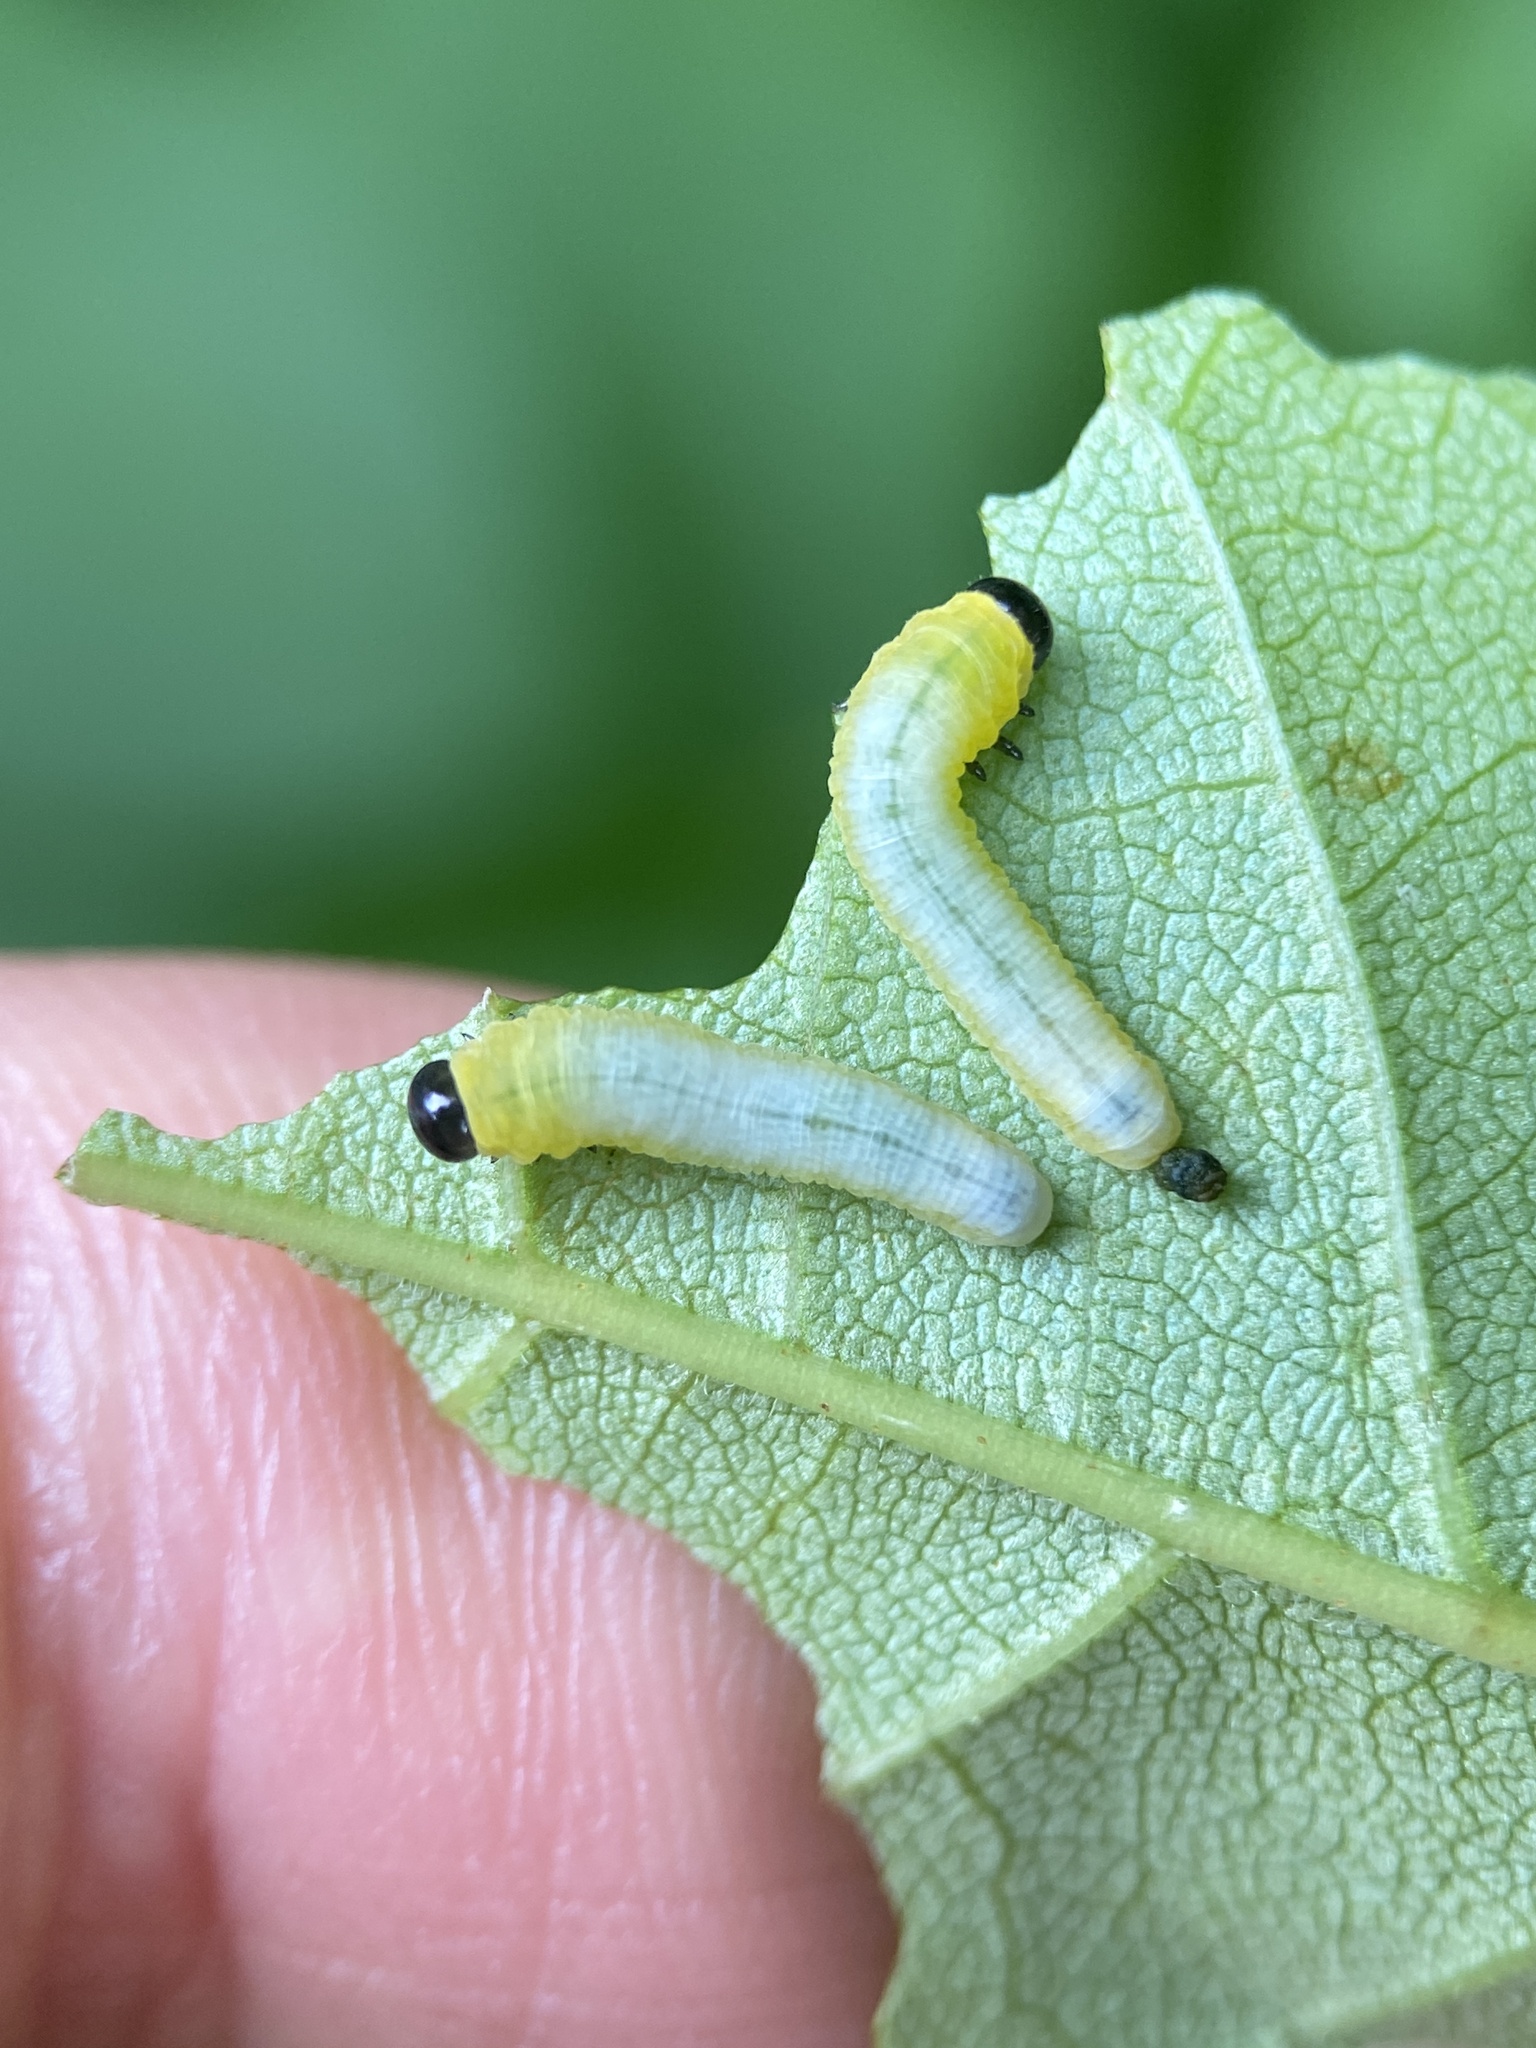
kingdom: Animalia
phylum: Arthropoda
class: Insecta
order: Hymenoptera
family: Tenthredinidae
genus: Tethida
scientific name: Tethida barda
